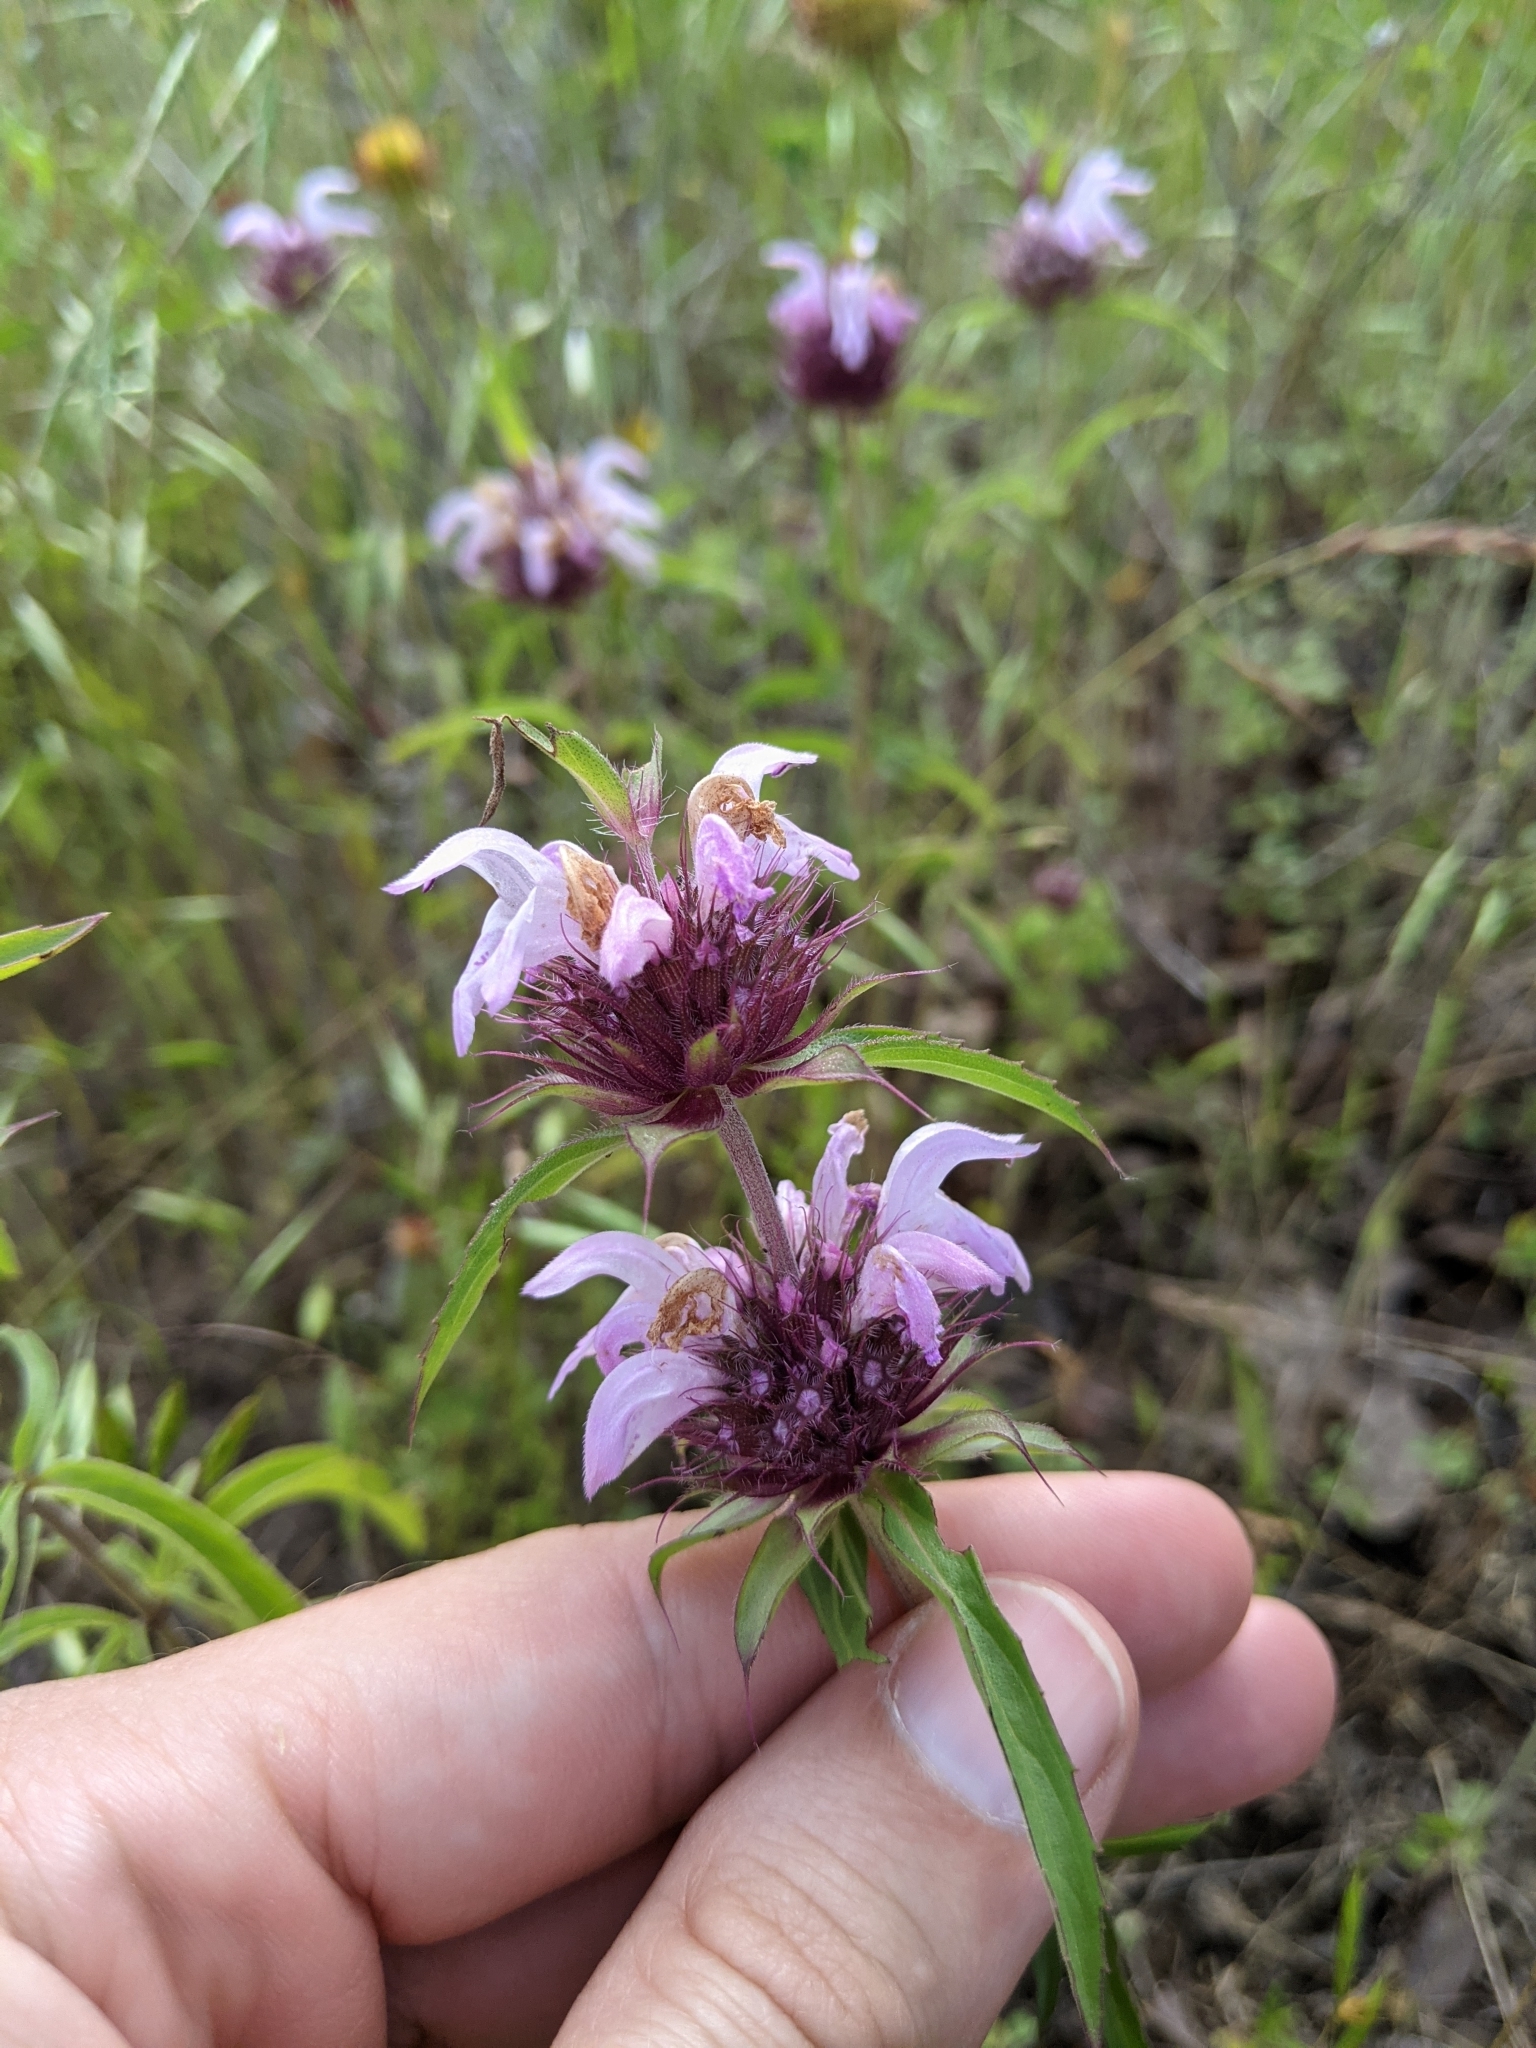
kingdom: Plantae
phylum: Tracheophyta
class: Magnoliopsida
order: Lamiales
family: Lamiaceae
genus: Monarda
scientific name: Monarda clinopodioides
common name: Basil beebalm
